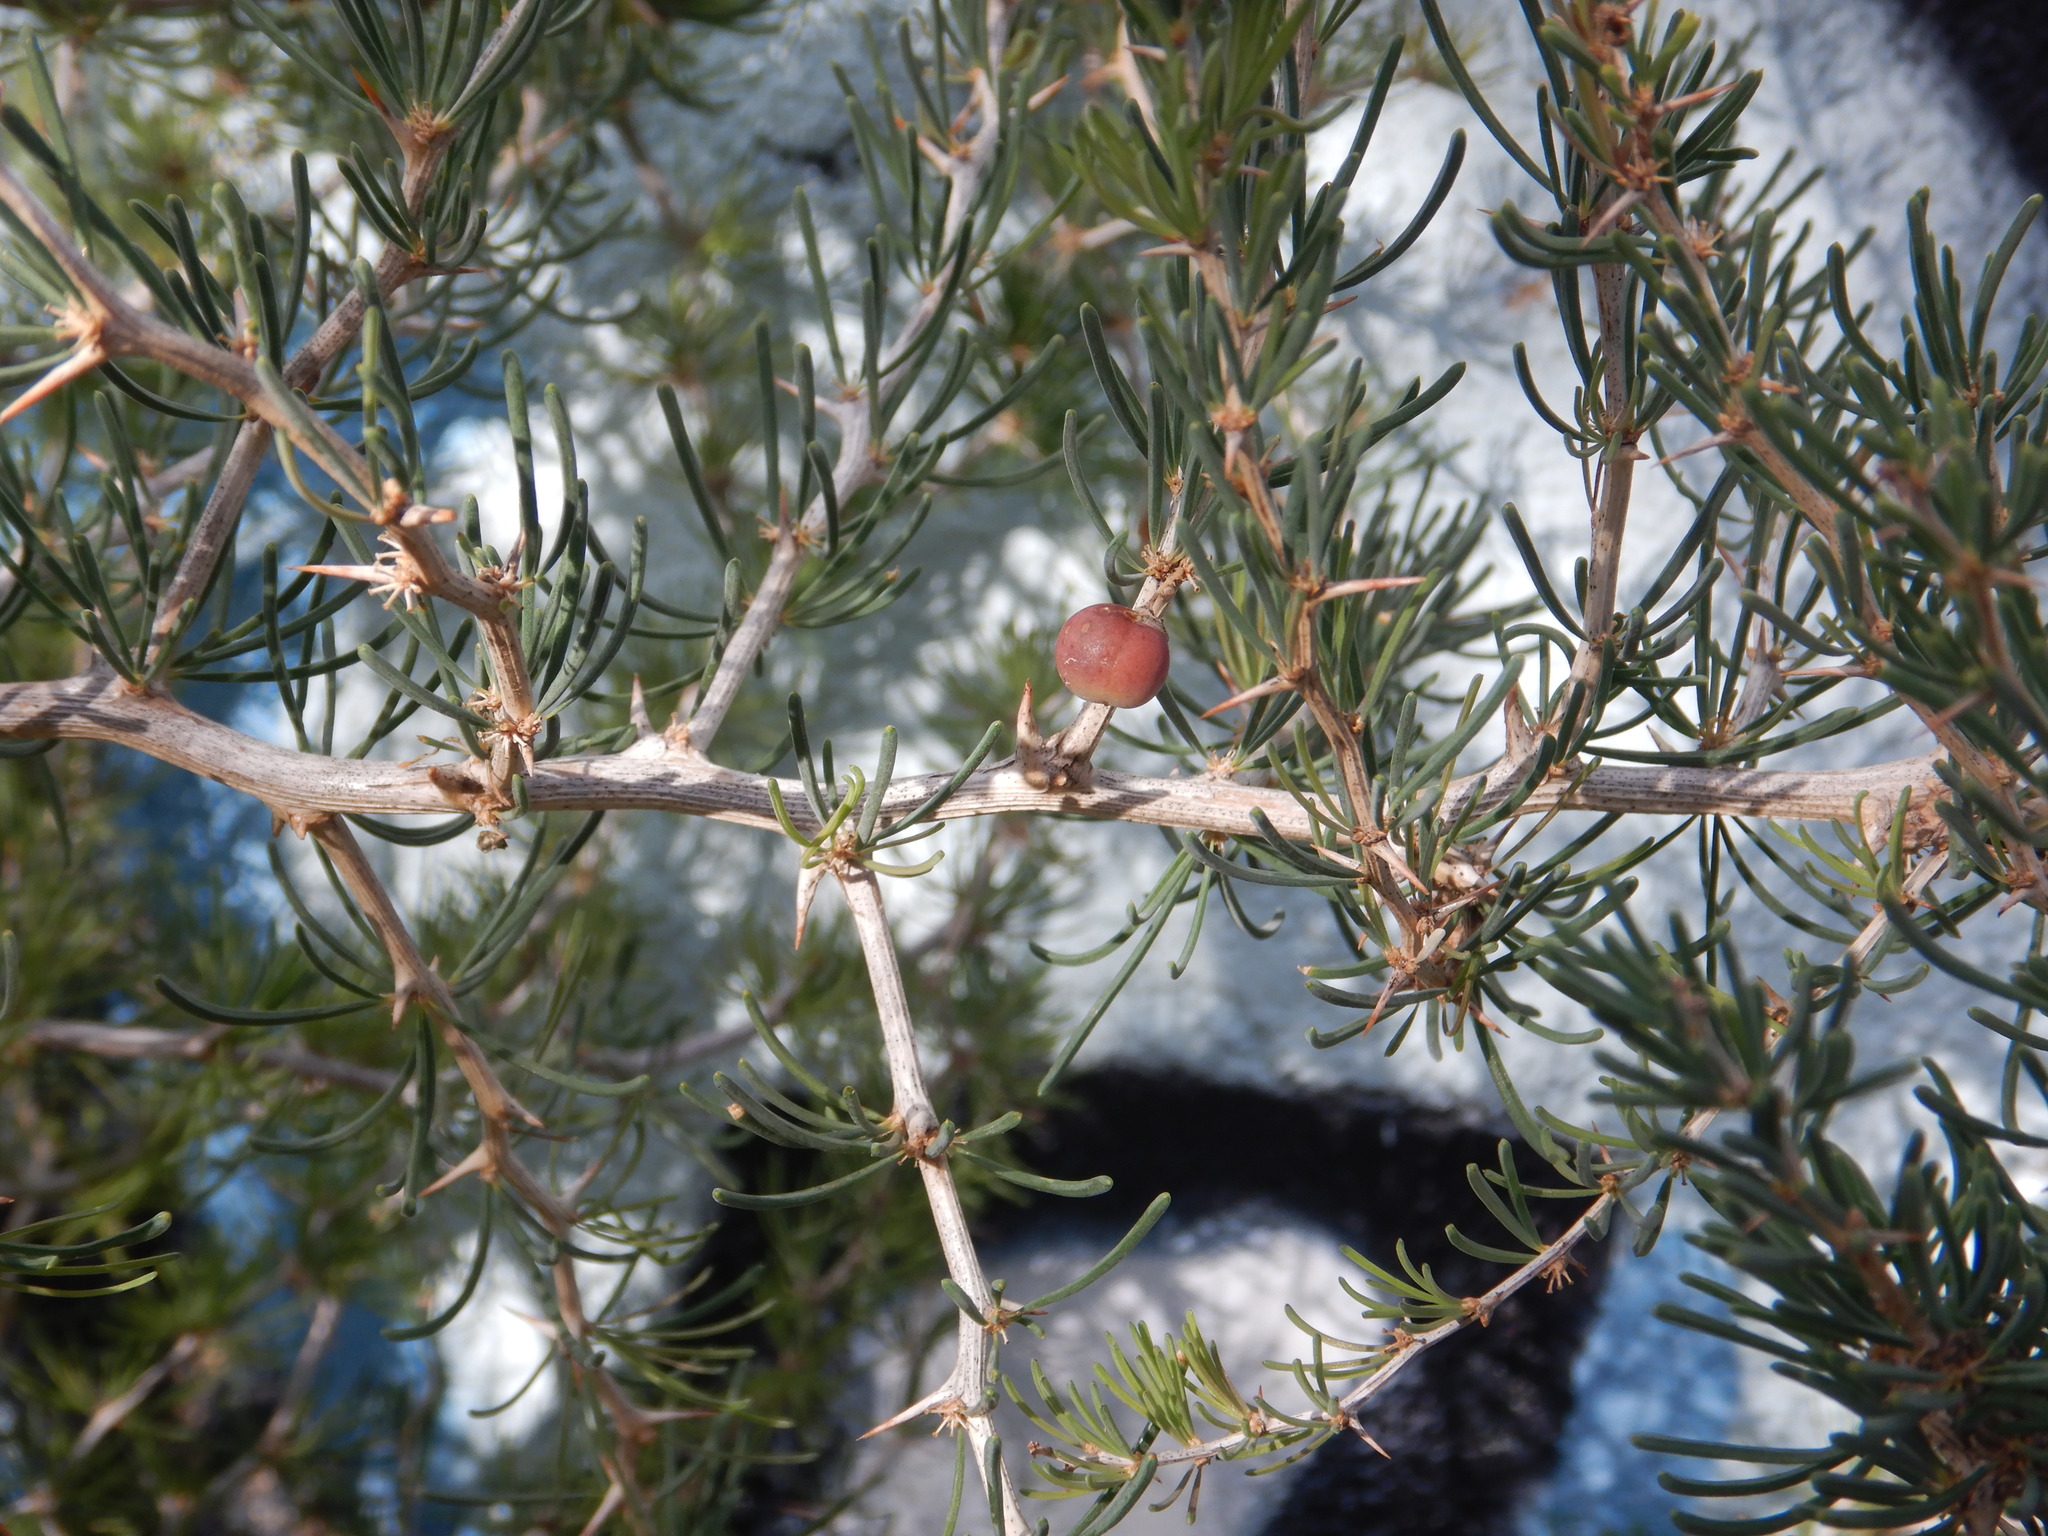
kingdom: Plantae
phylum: Tracheophyta
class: Liliopsida
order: Asparagales
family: Asparagaceae
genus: Asparagus
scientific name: Asparagus albus
